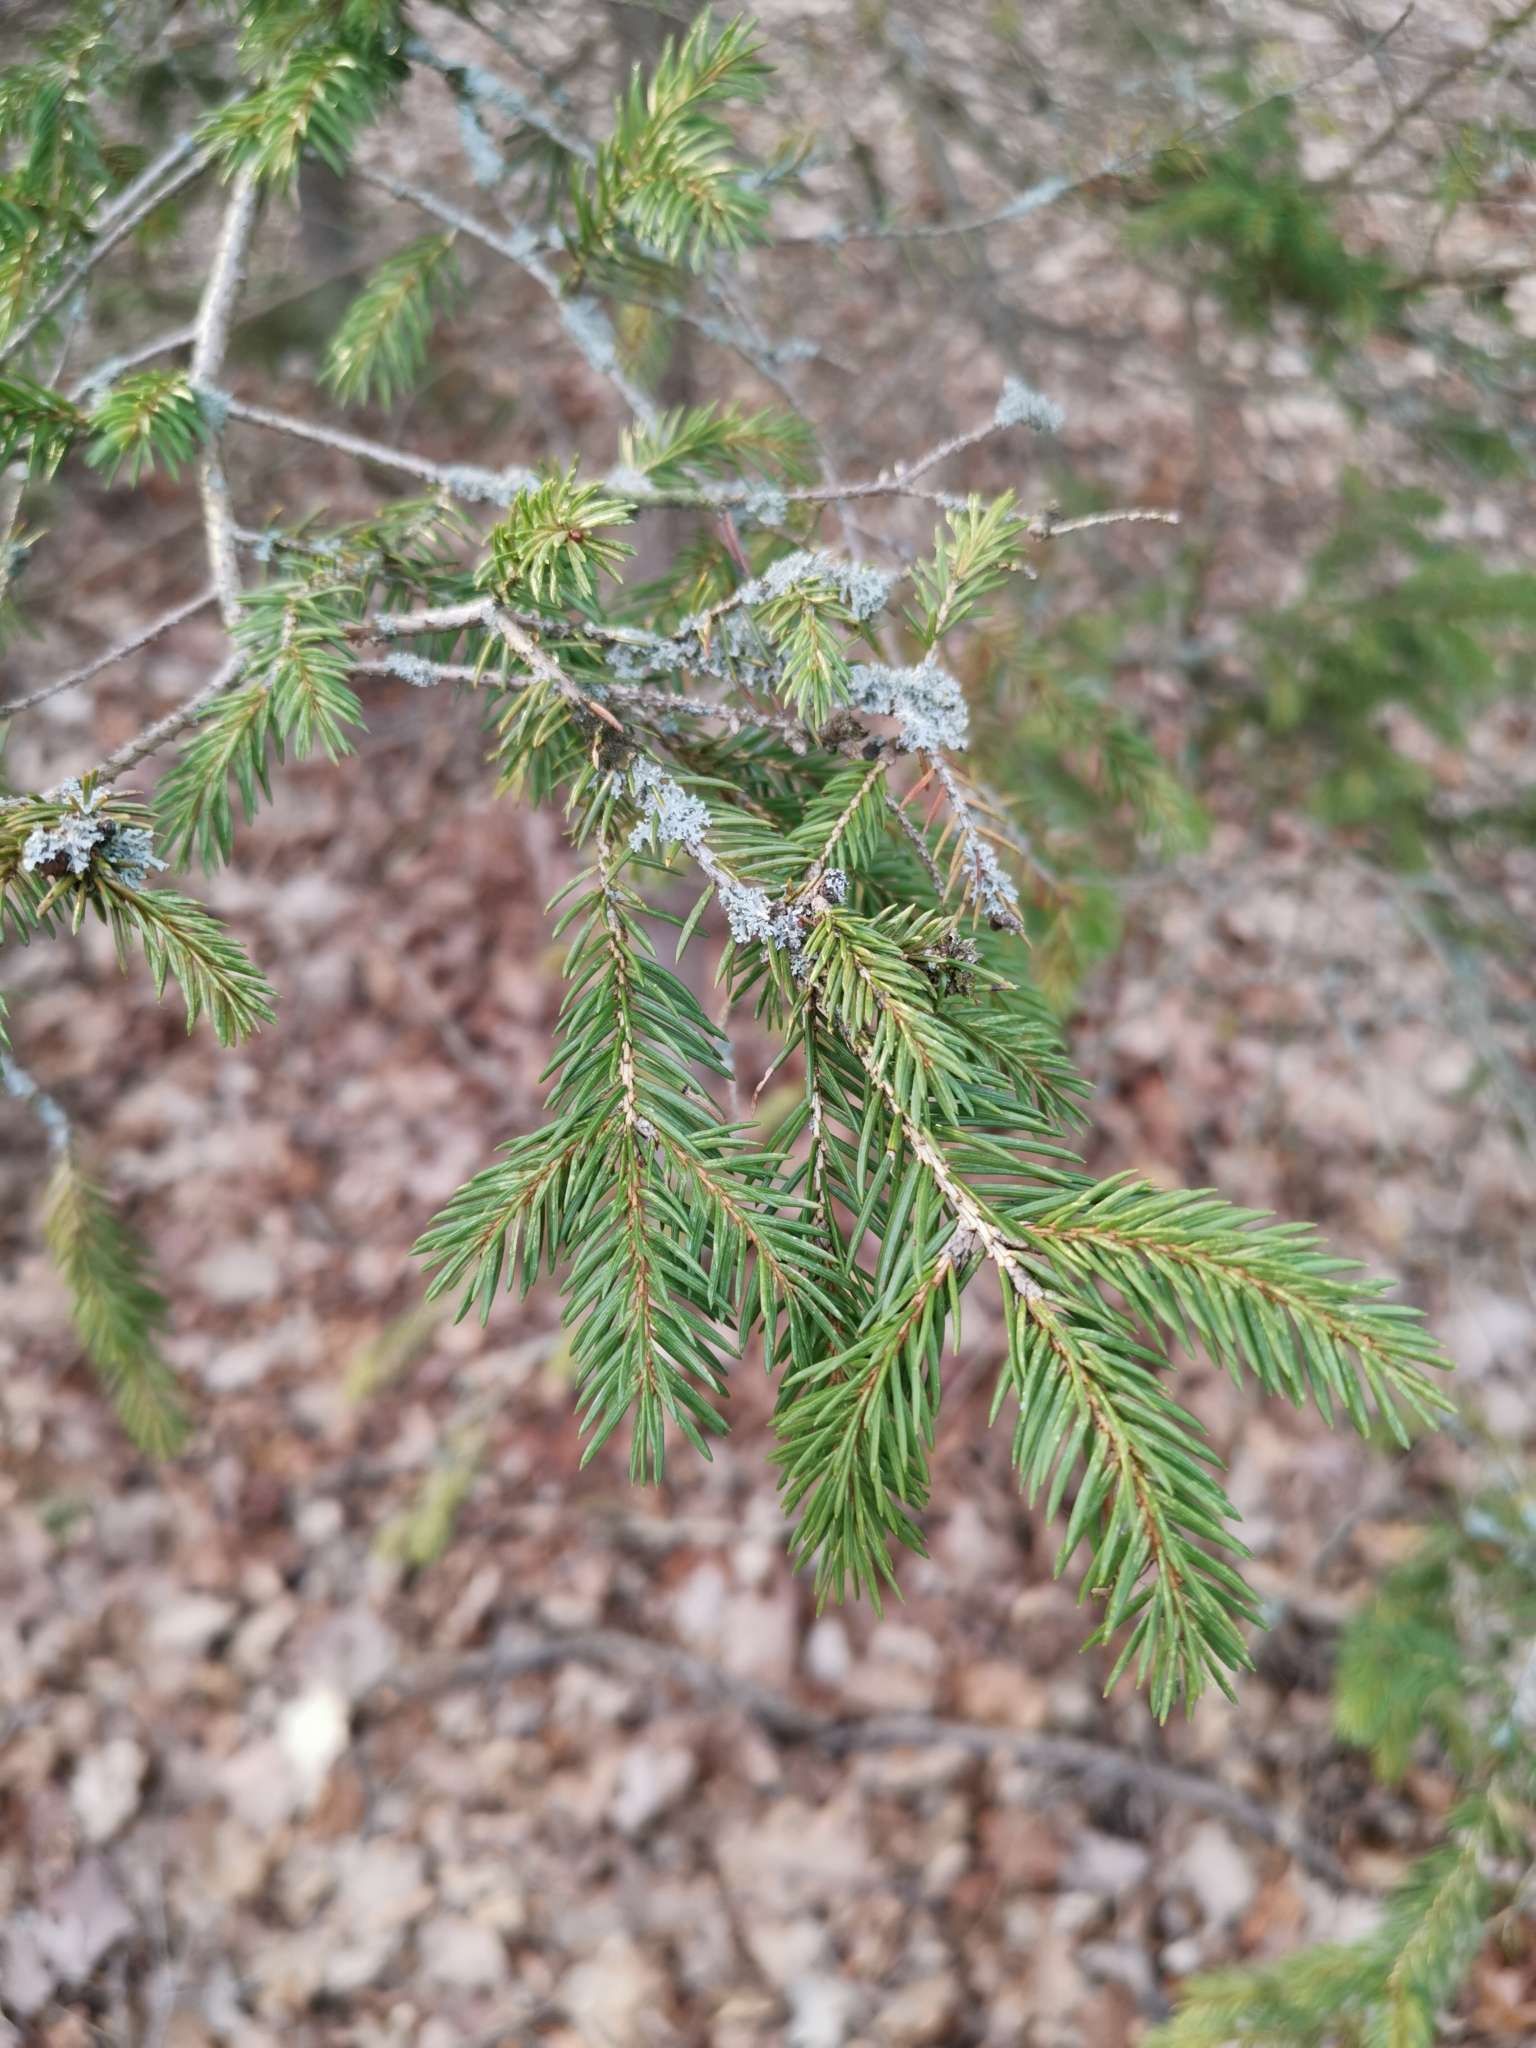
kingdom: Plantae
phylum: Tracheophyta
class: Pinopsida
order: Pinales
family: Pinaceae
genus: Picea
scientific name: Picea abies
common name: Norway spruce
